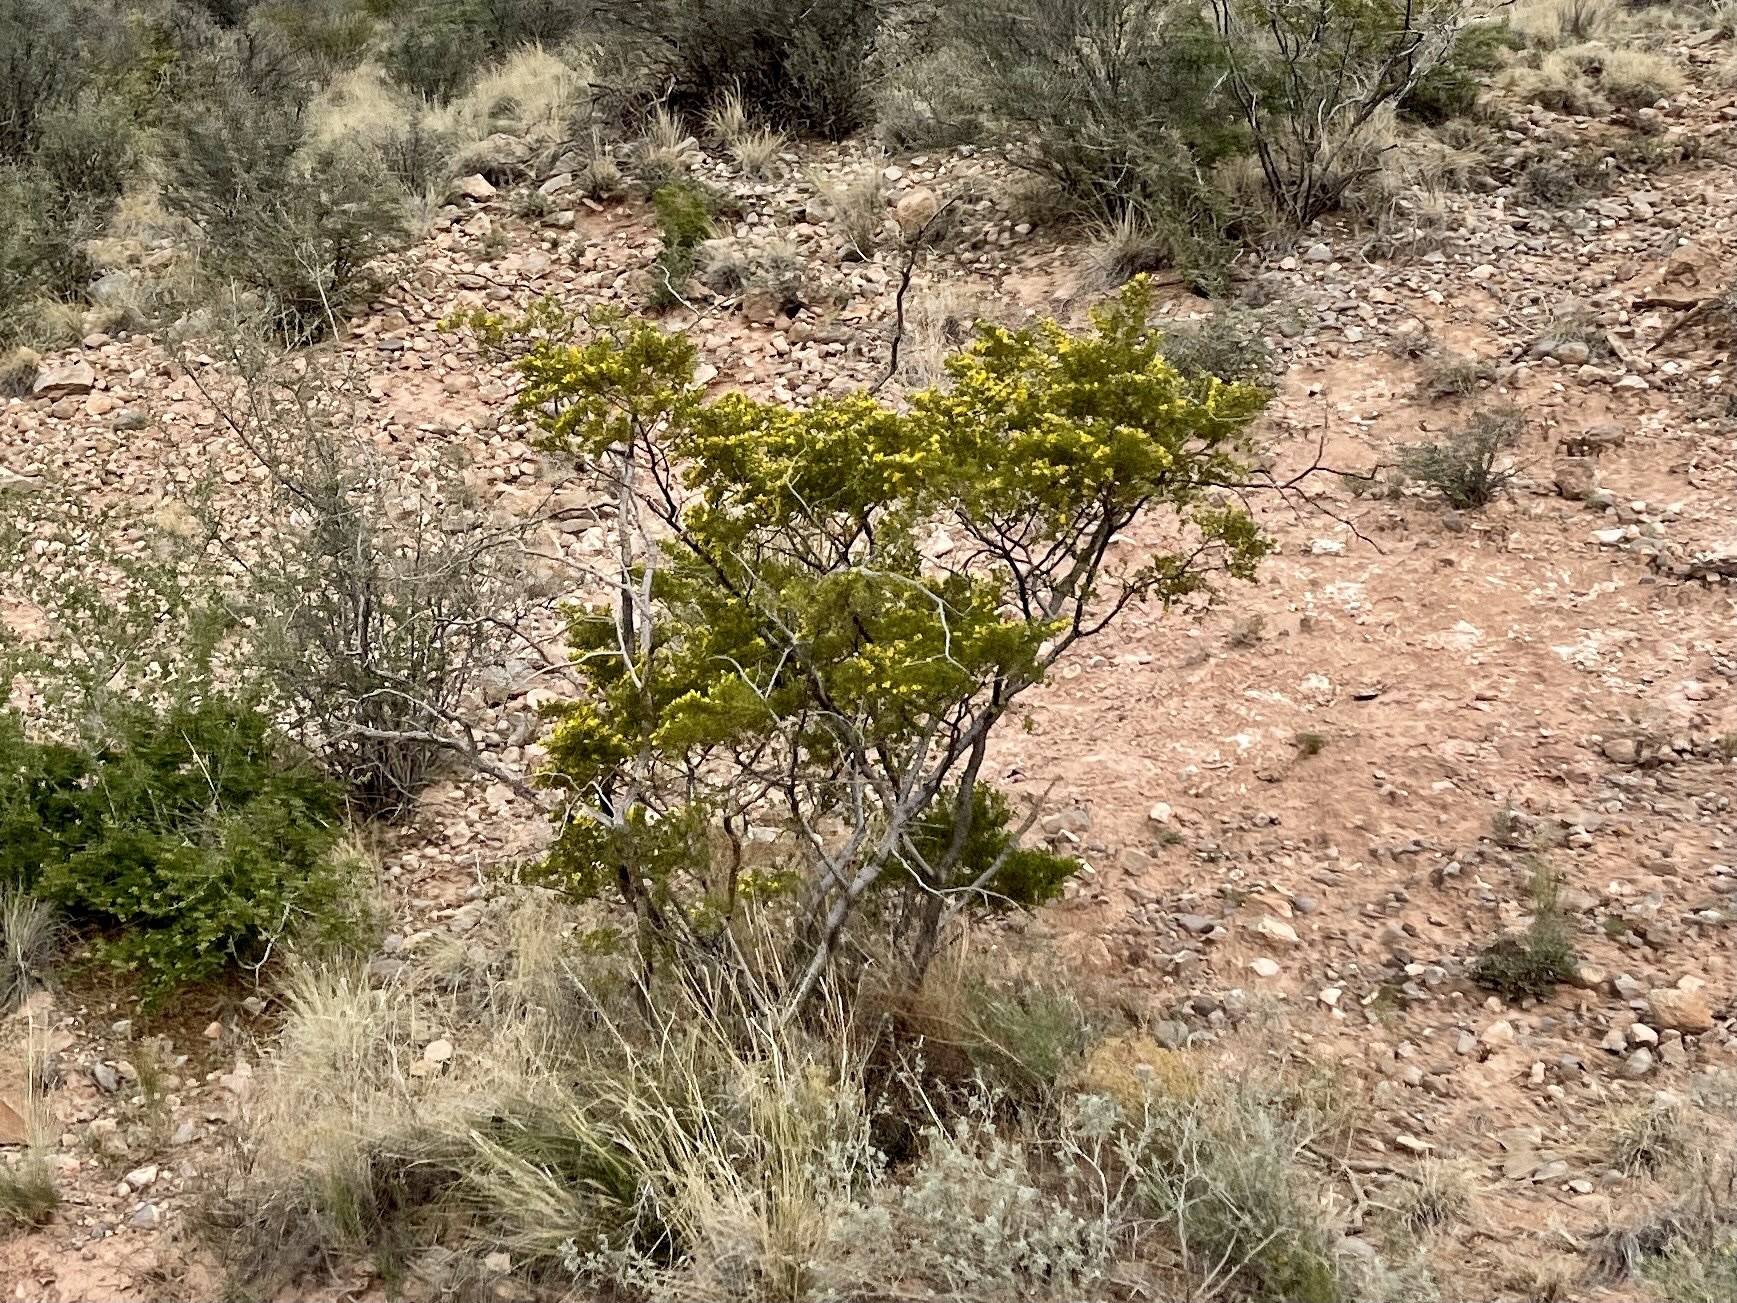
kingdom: Plantae
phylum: Tracheophyta
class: Magnoliopsida
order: Zygophyllales
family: Zygophyllaceae
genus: Larrea
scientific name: Larrea tridentata
